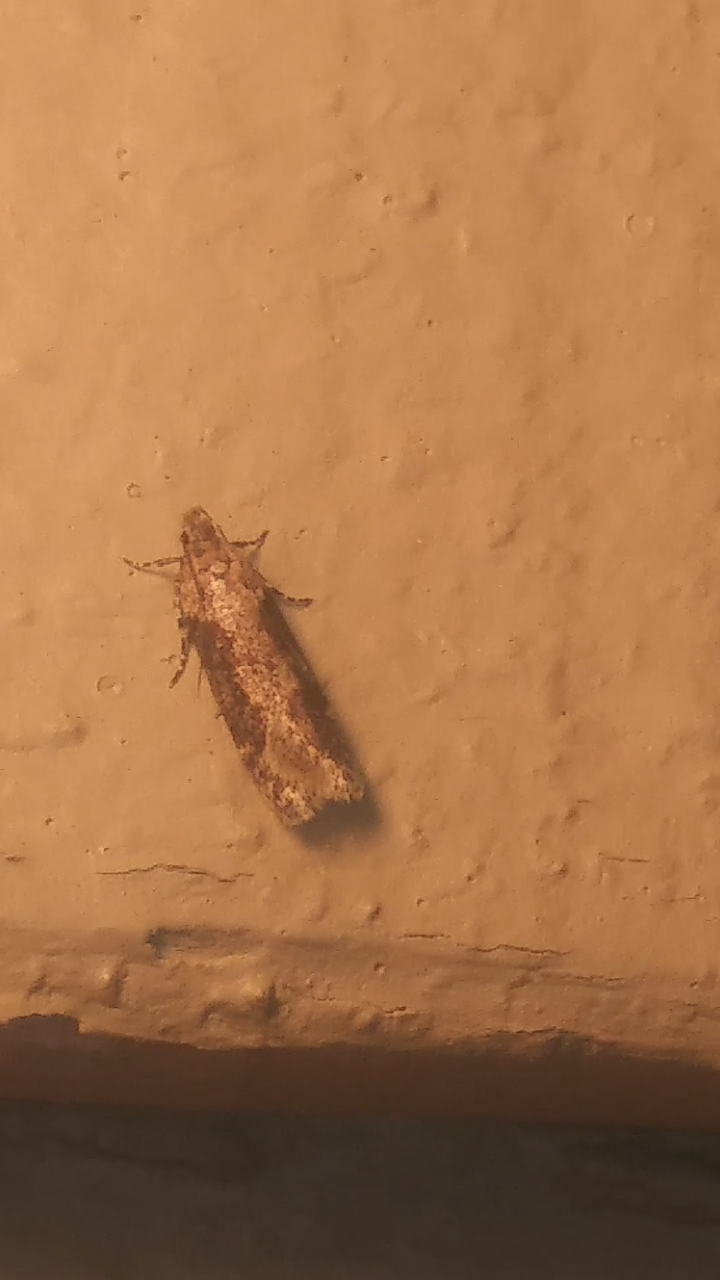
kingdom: Animalia
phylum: Arthropoda
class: Insecta
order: Lepidoptera
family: Gelechiidae
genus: Chionodes
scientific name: Chionodes mediofuscella
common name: Black-smudged chionodes moth
